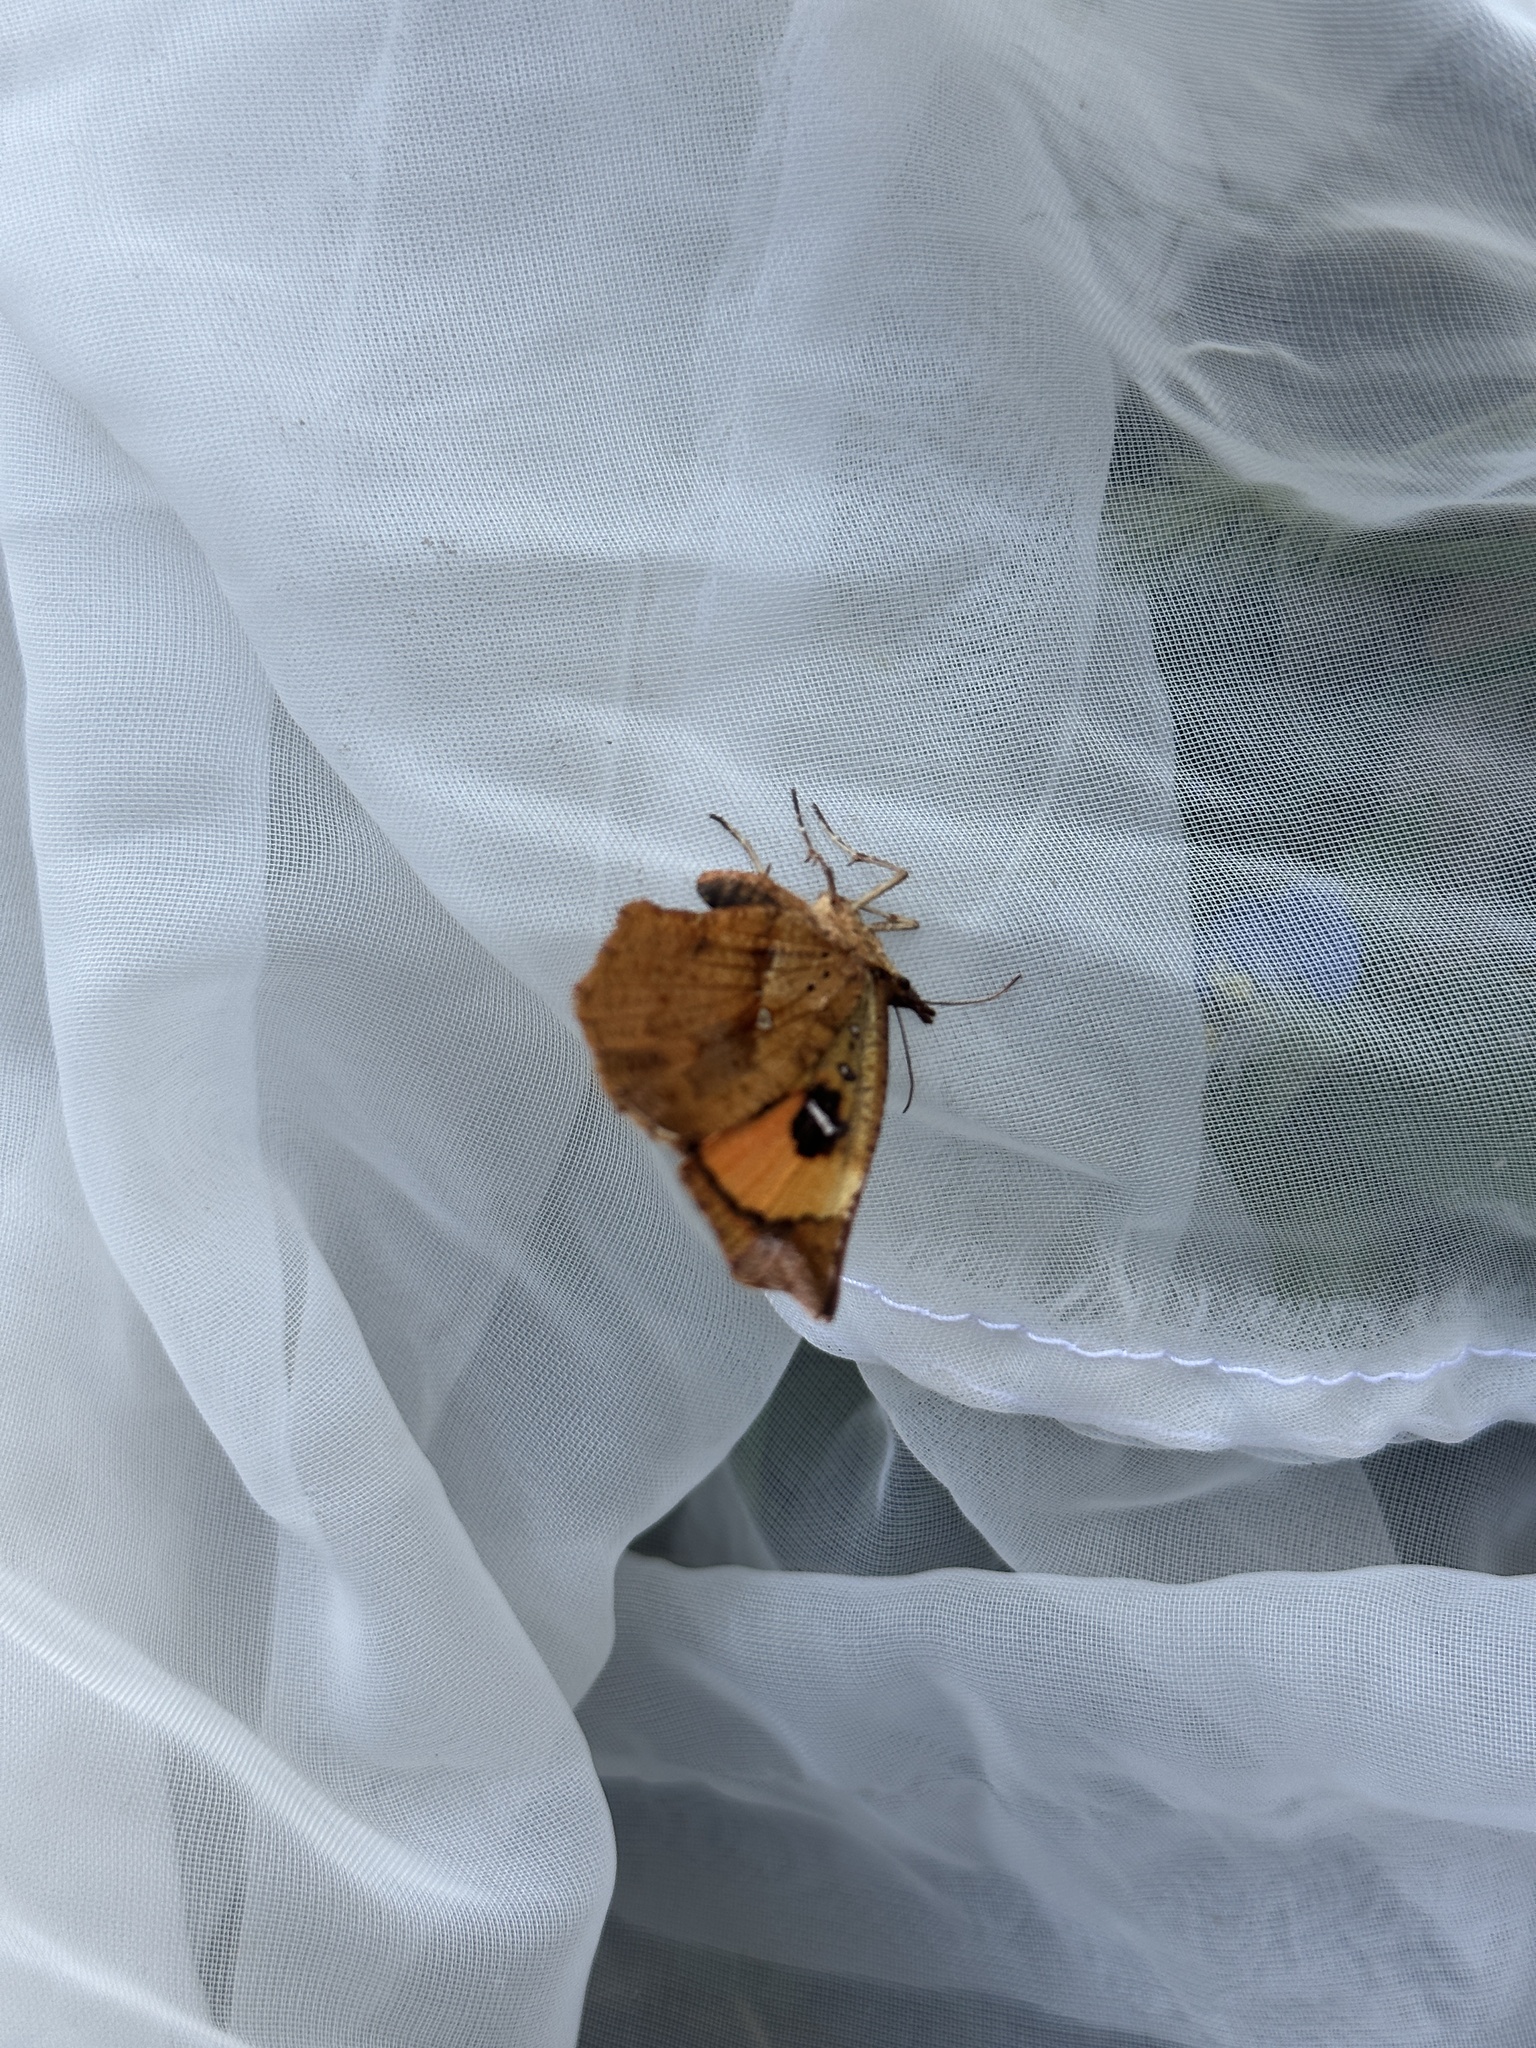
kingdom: Animalia
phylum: Arthropoda
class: Insecta
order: Lepidoptera
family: Callidulidae
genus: Pterodecta
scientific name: Pterodecta felderi
